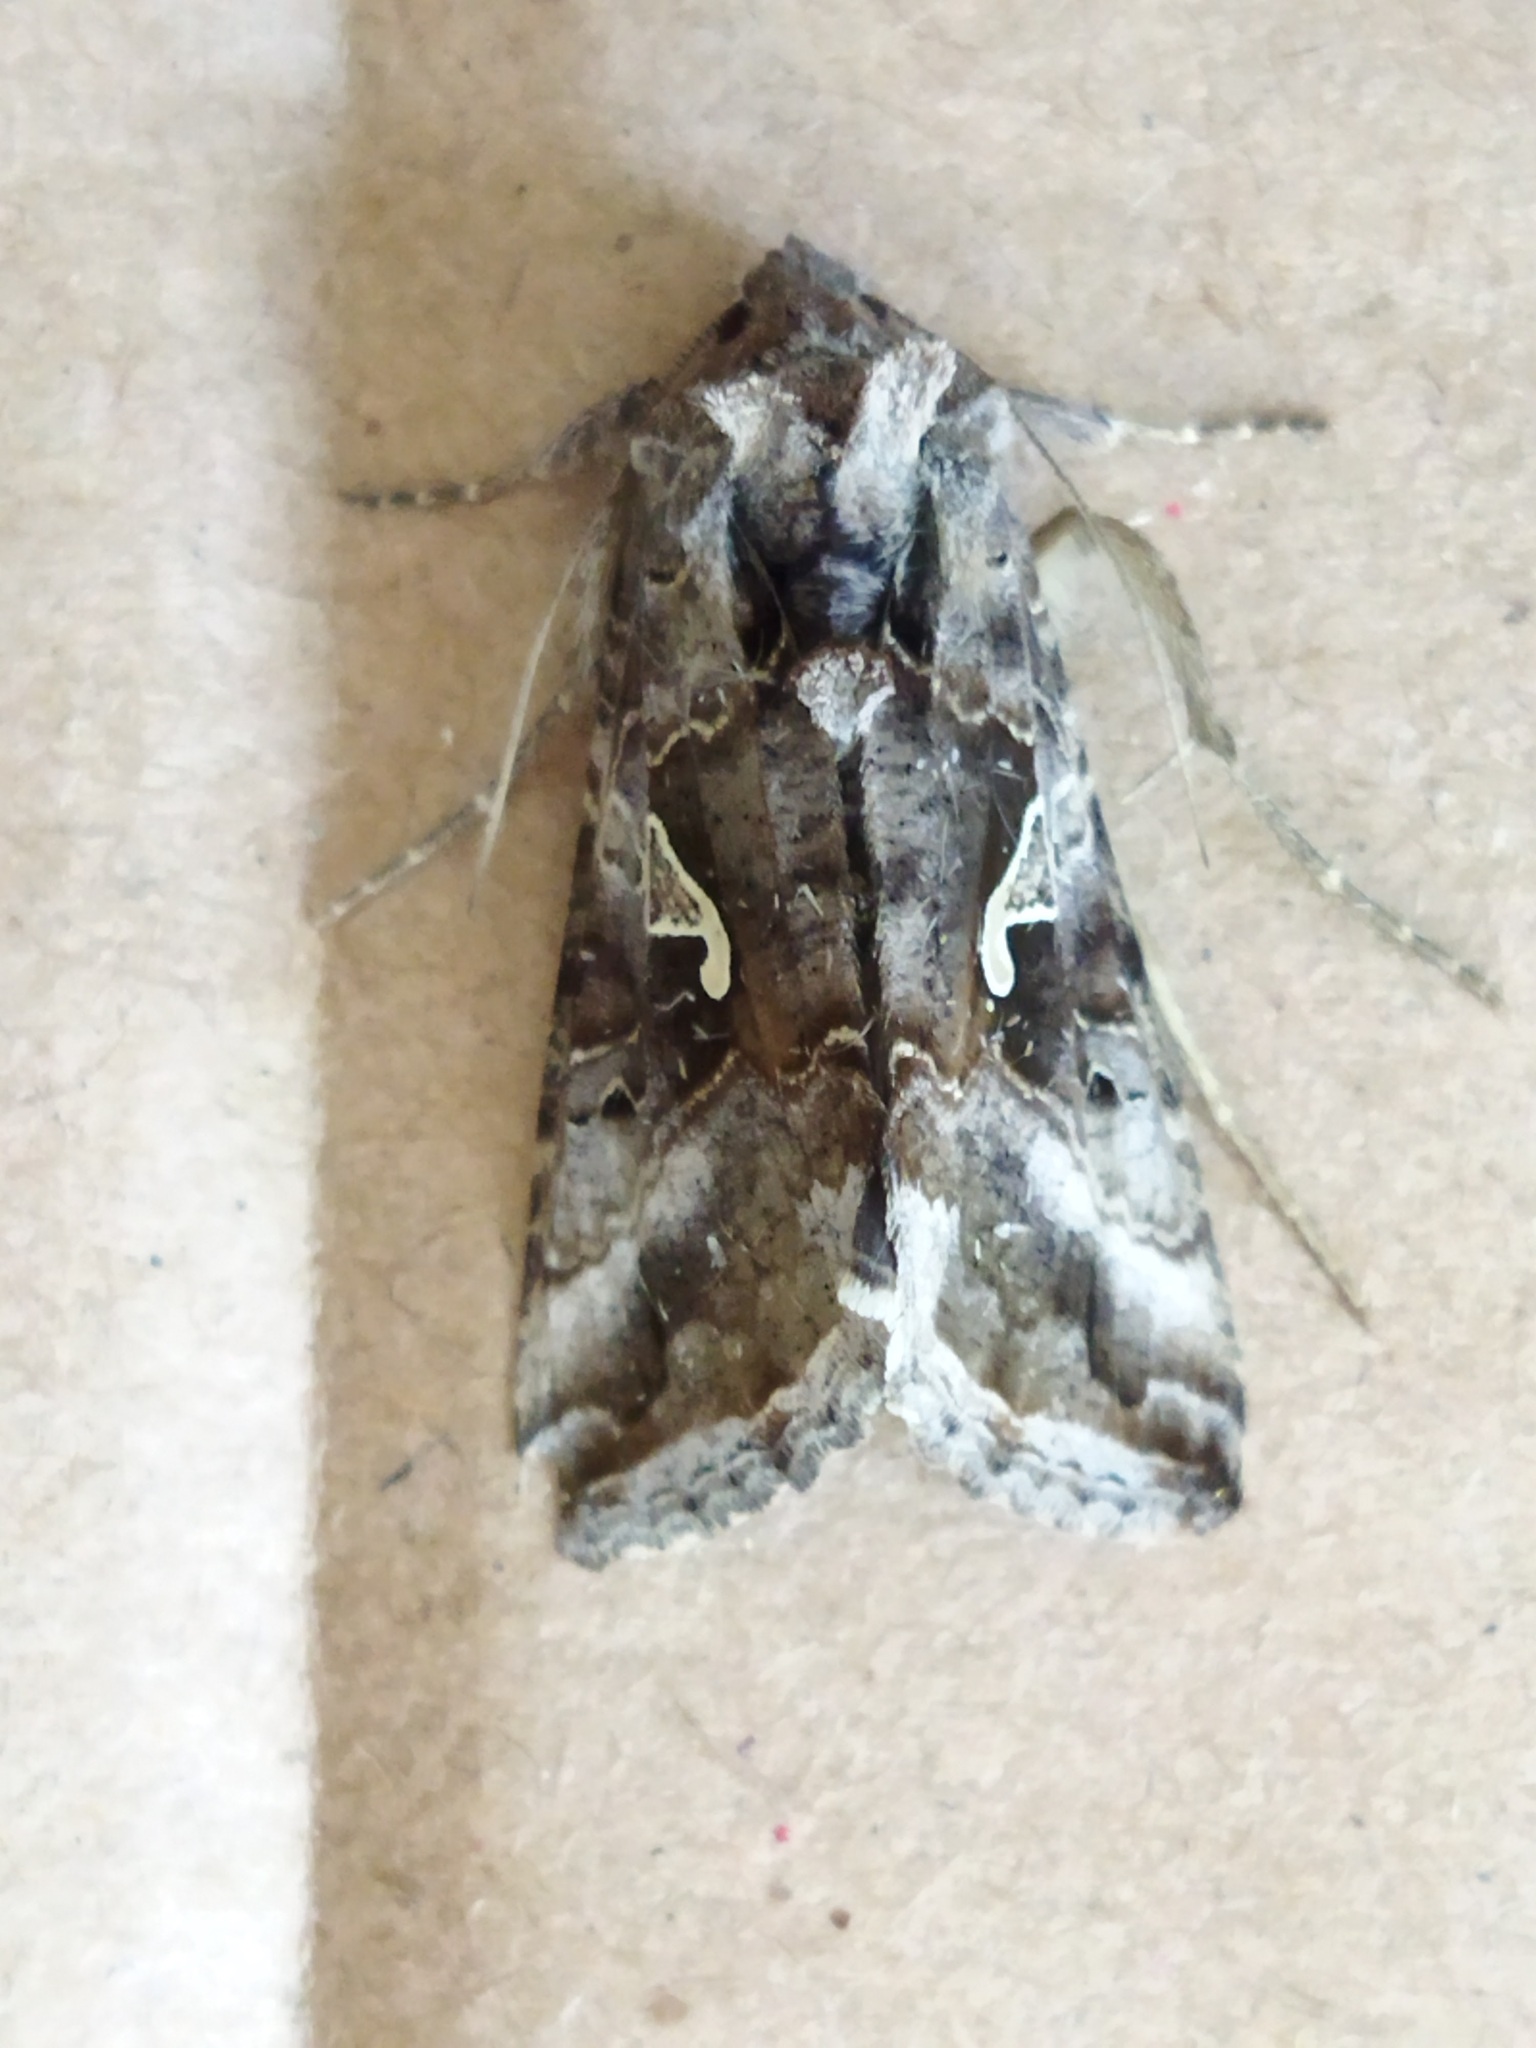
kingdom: Animalia
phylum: Arthropoda
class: Insecta
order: Lepidoptera
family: Noctuidae
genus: Autographa
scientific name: Autographa gamma
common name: Silver y
